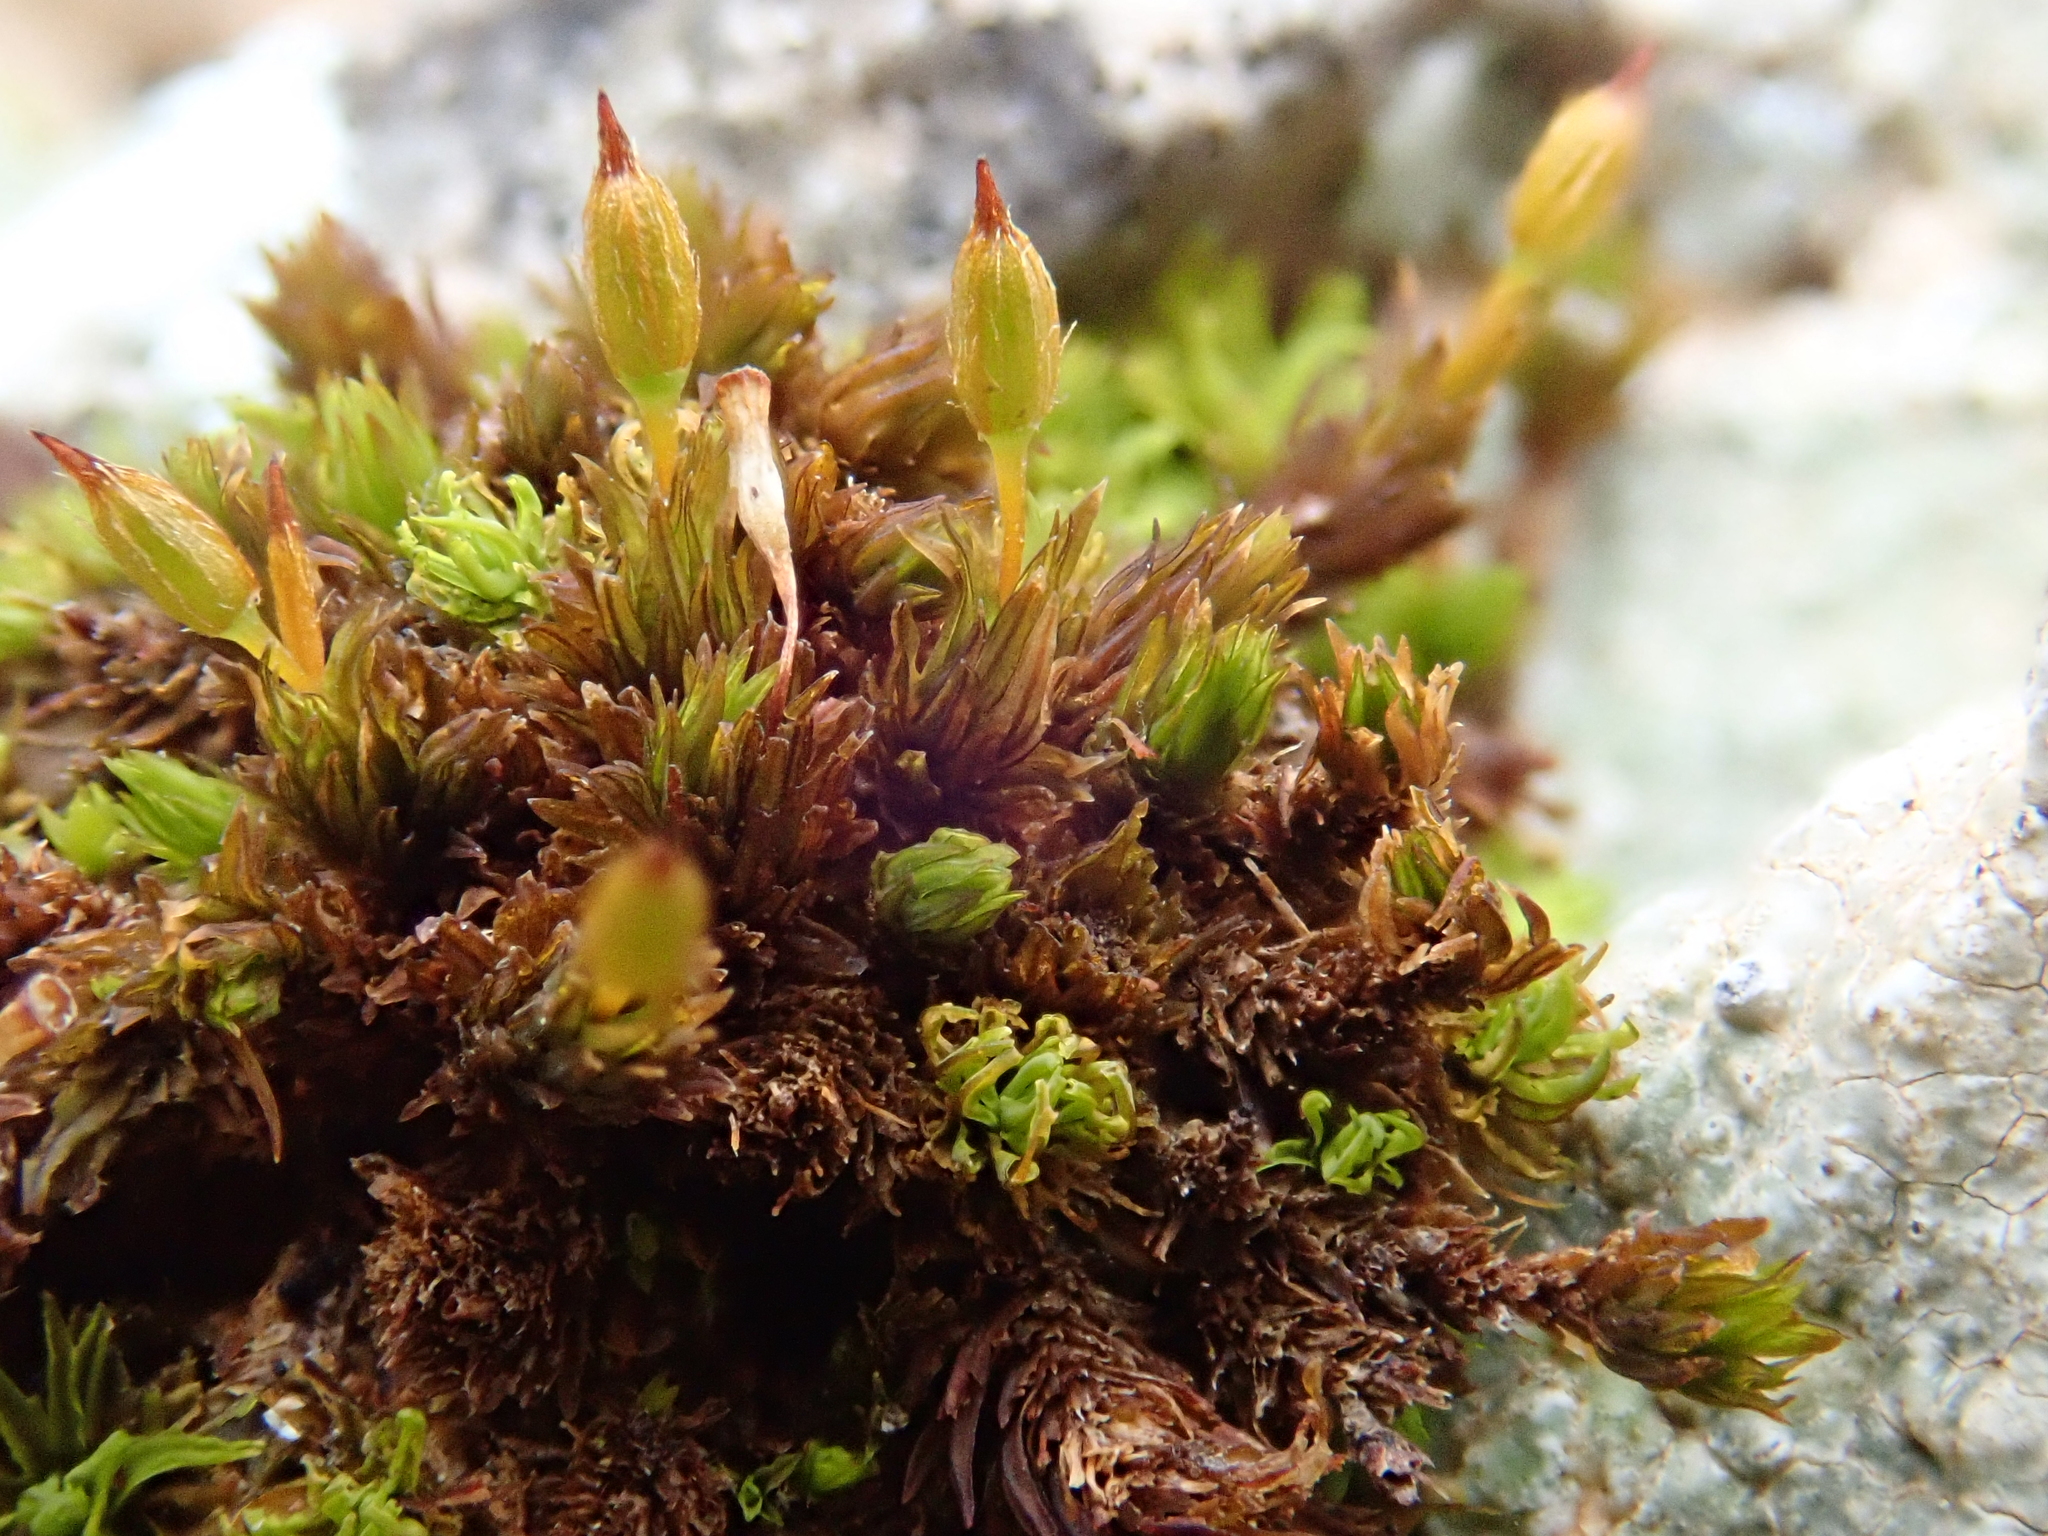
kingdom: Plantae
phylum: Bryophyta
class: Bryopsida
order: Orthotrichales
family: Orthotrichaceae
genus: Orthotrichum
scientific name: Orthotrichum anomalum
